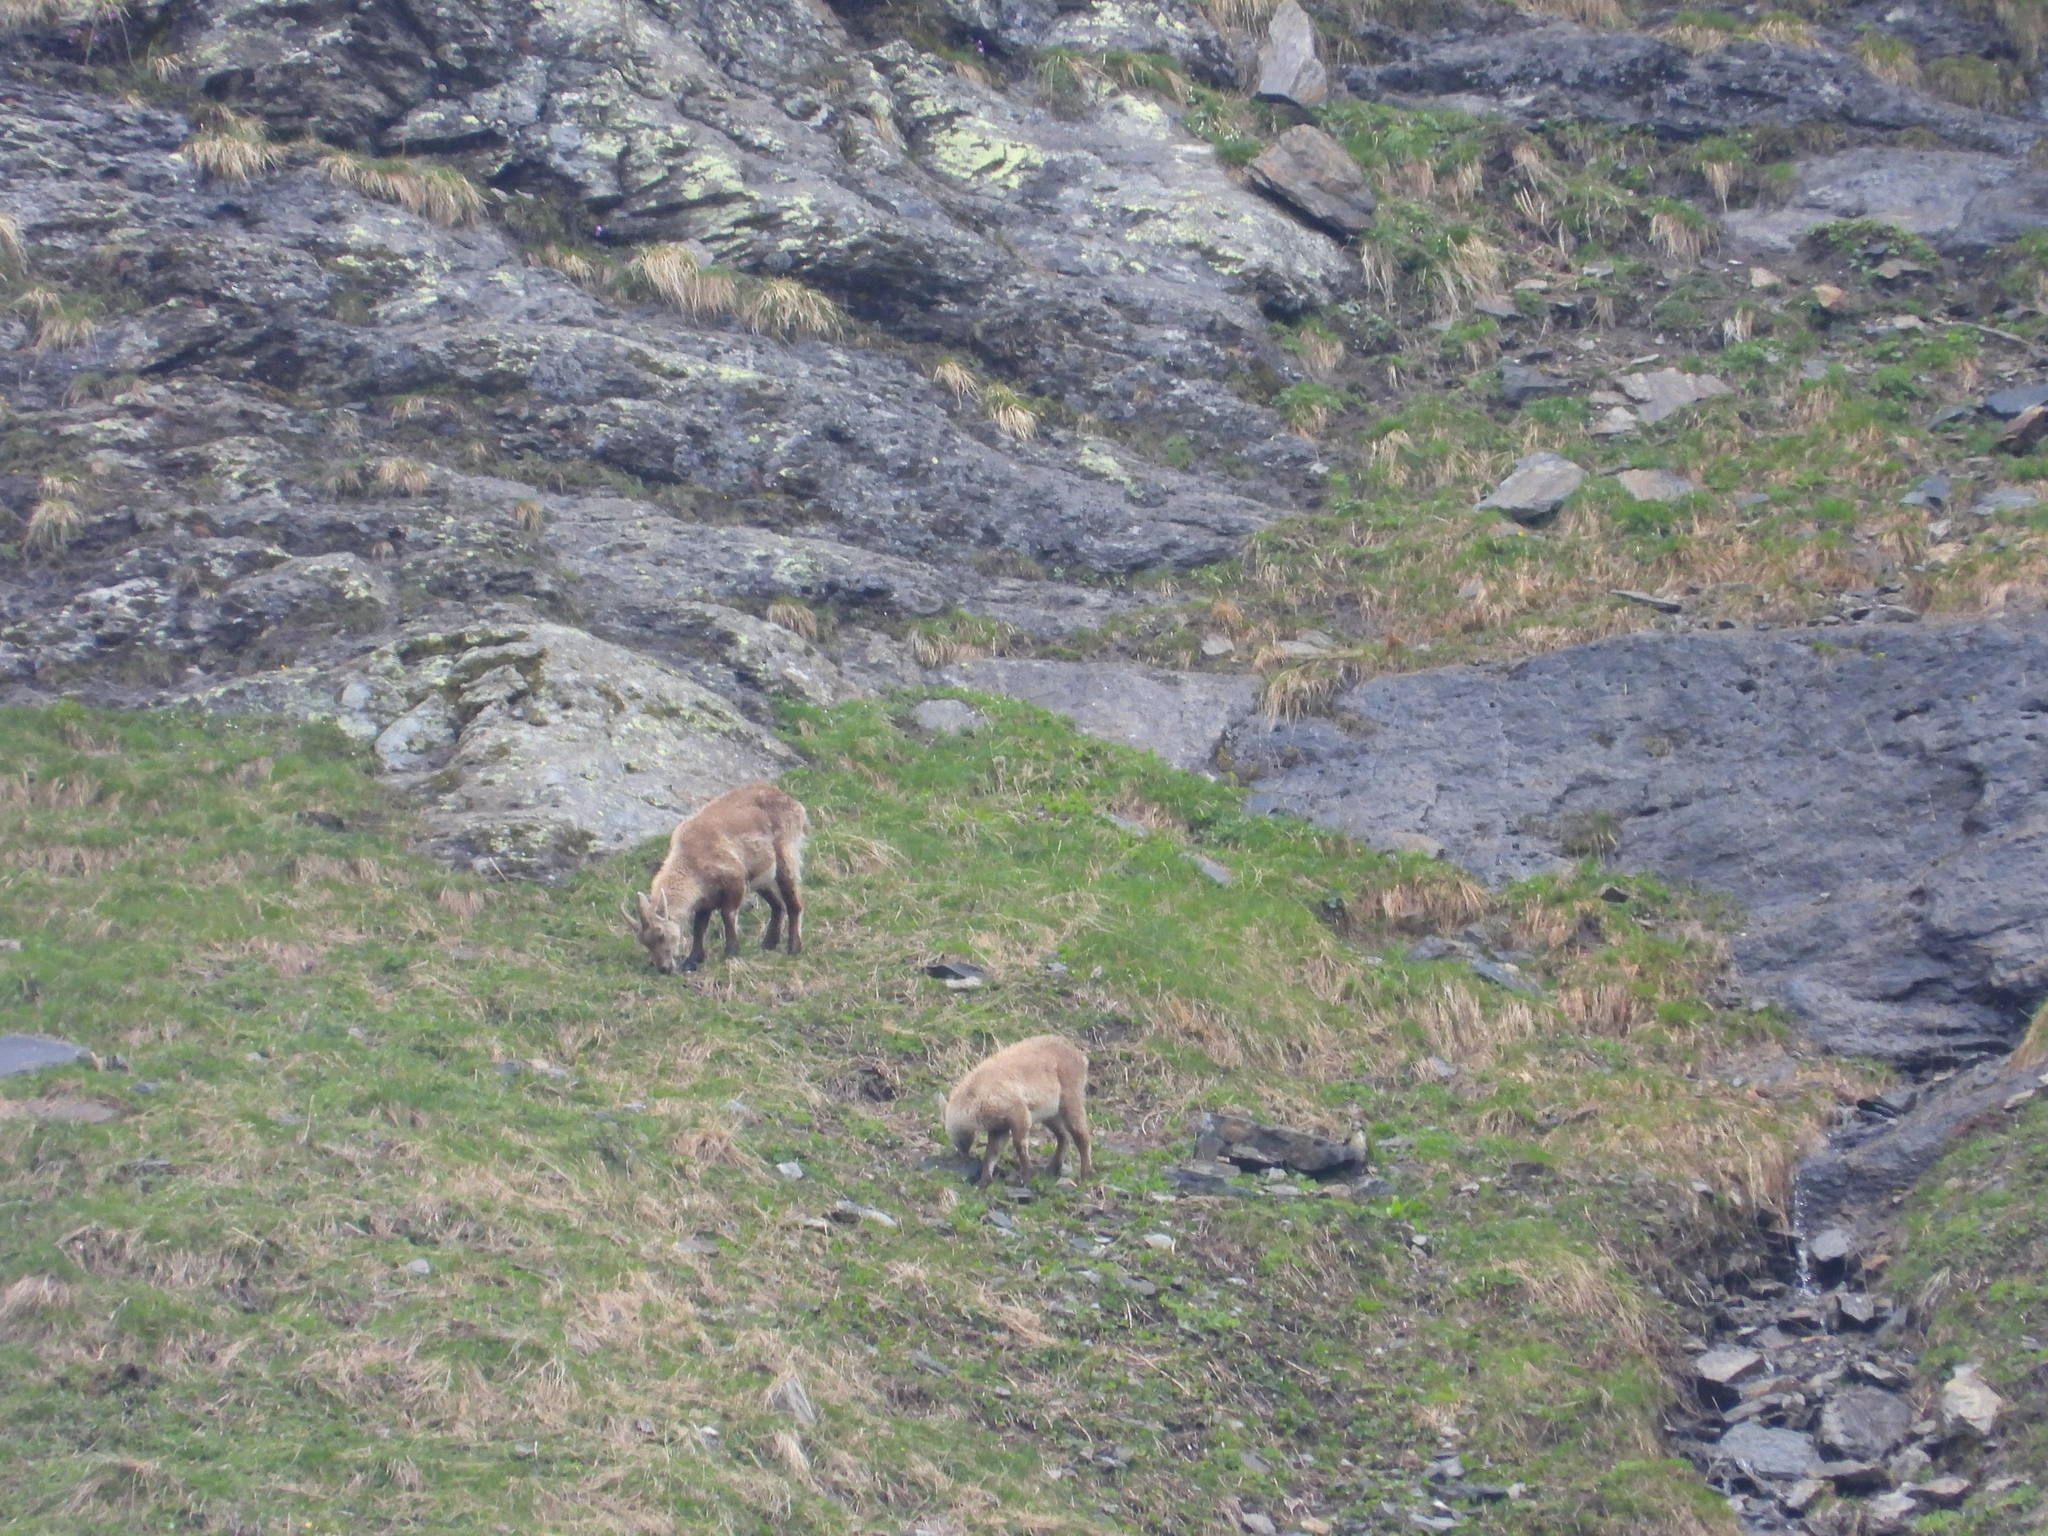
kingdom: Animalia
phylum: Chordata
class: Mammalia
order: Artiodactyla
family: Bovidae
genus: Capra
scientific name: Capra ibex
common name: Alpine ibex
